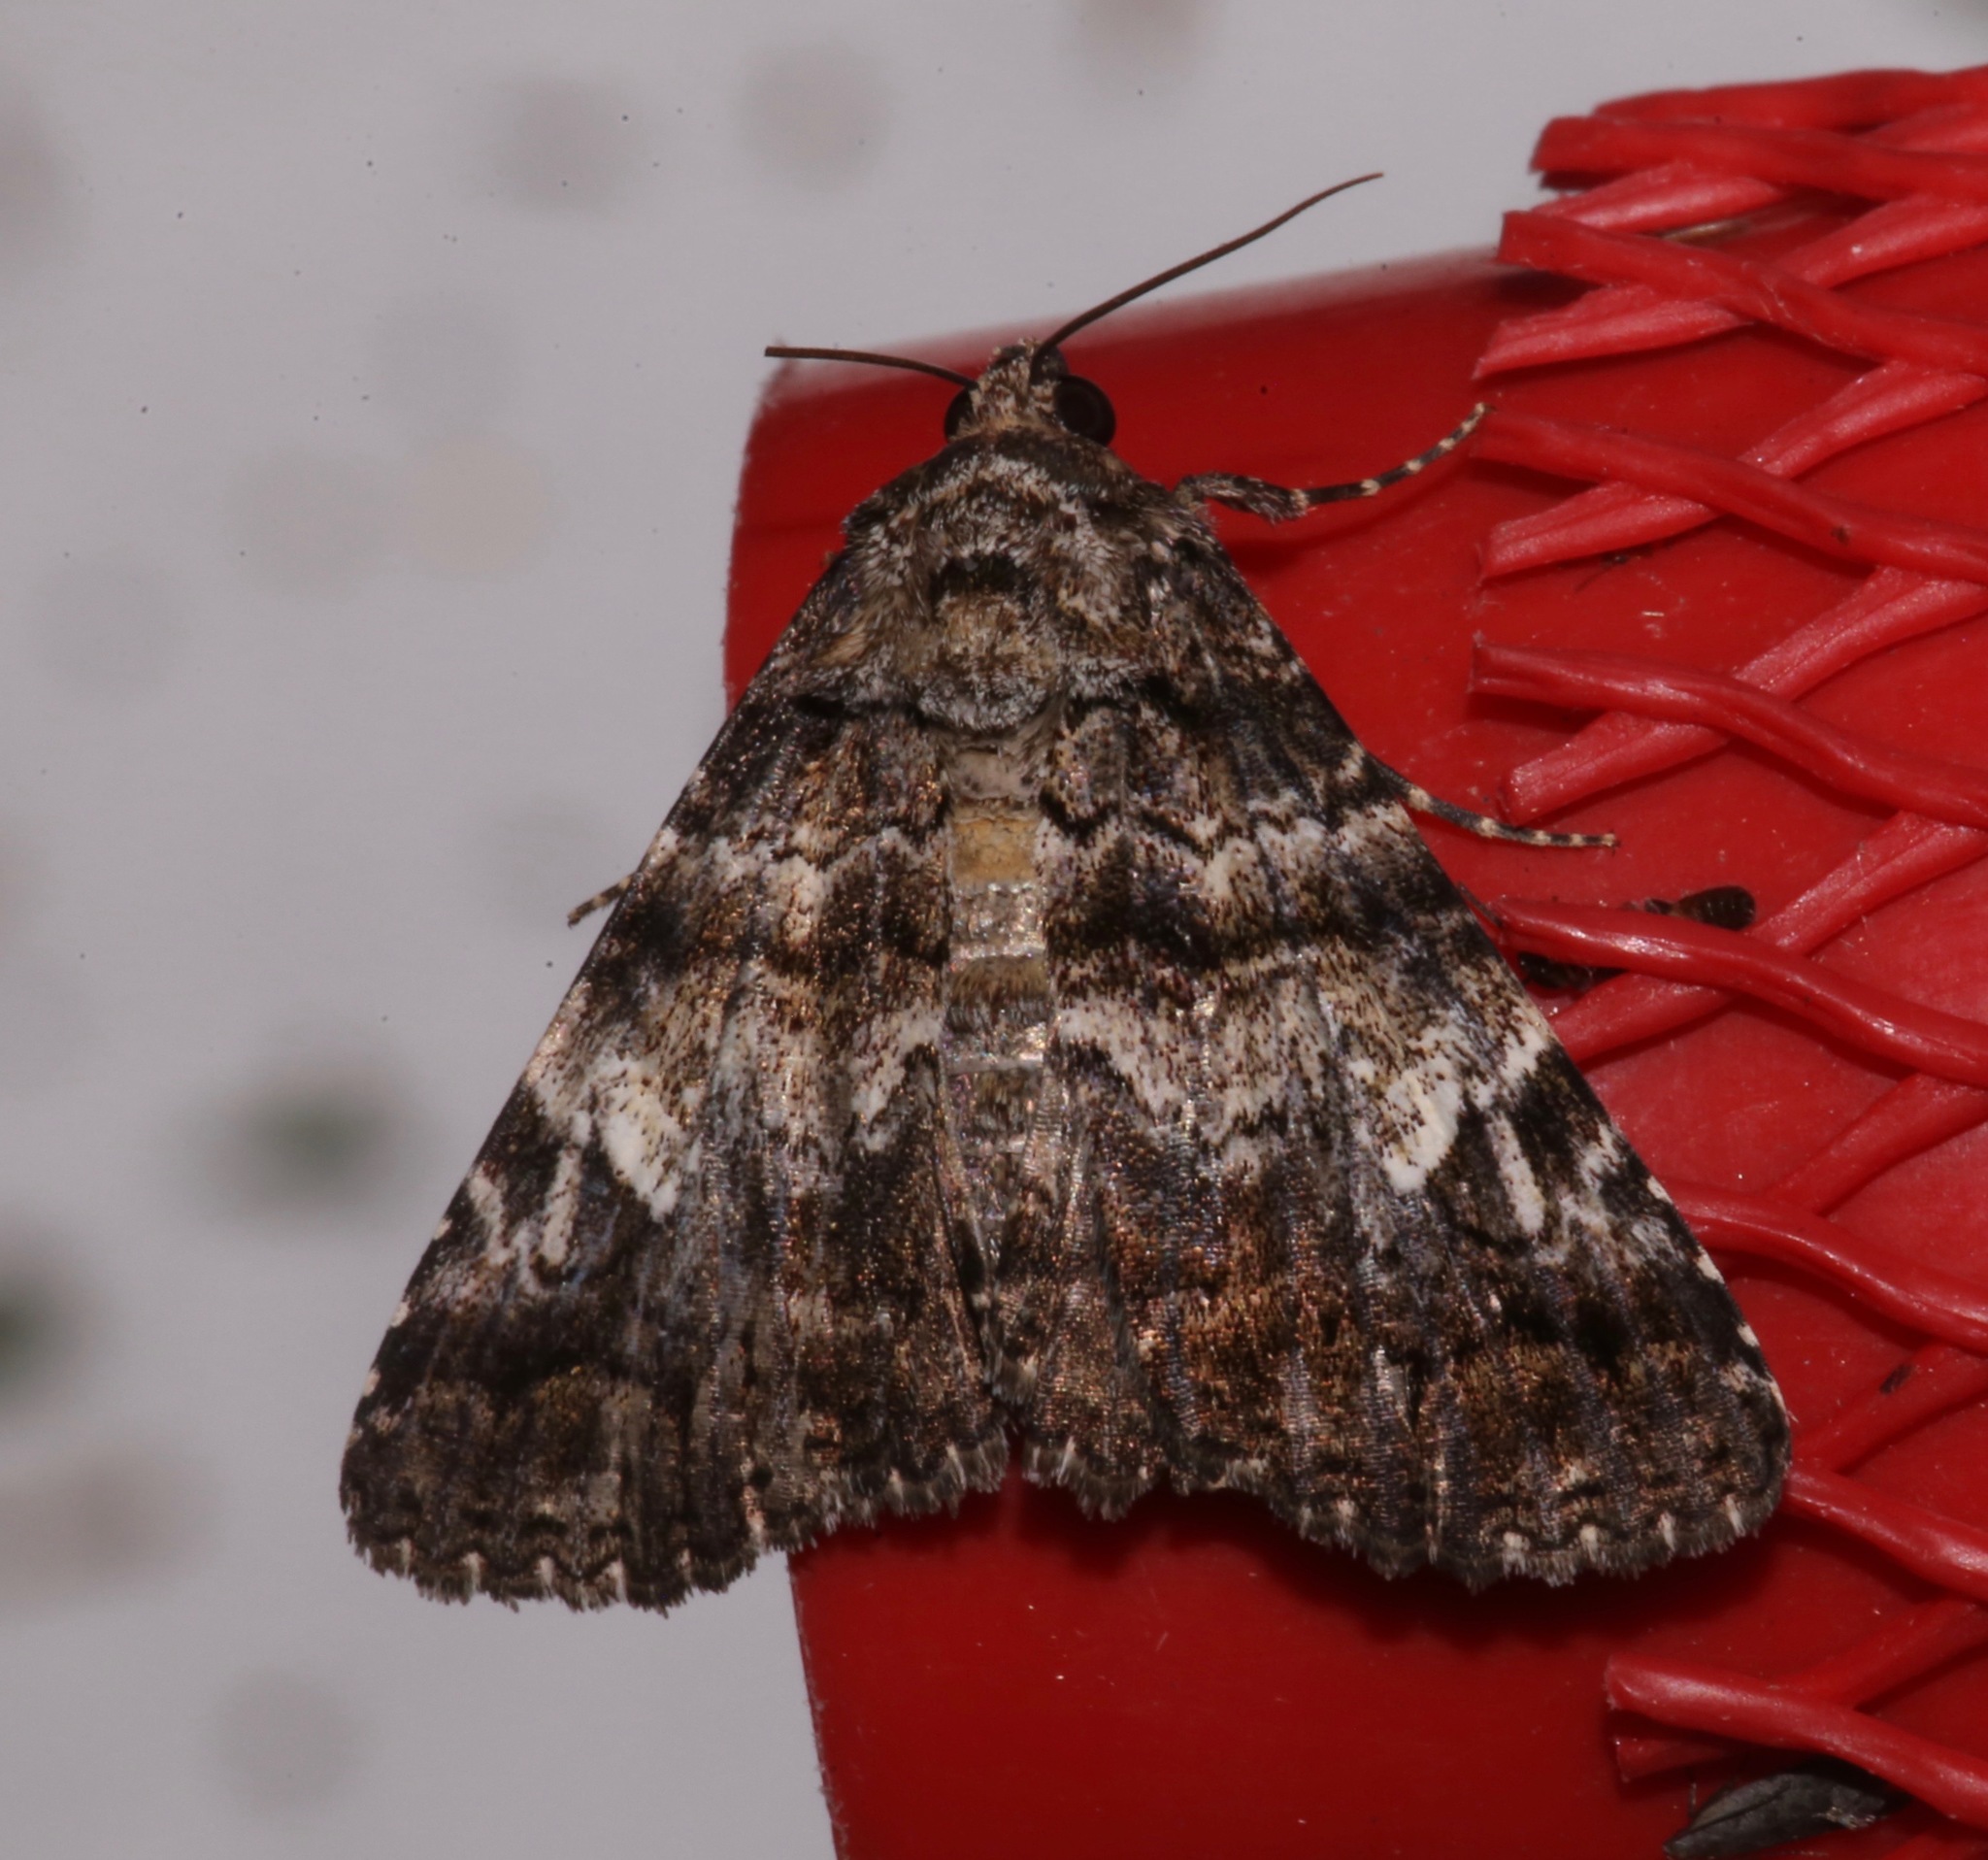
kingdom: Animalia
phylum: Arthropoda
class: Insecta
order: Lepidoptera
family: Erebidae
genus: Metria
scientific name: Metria amella
